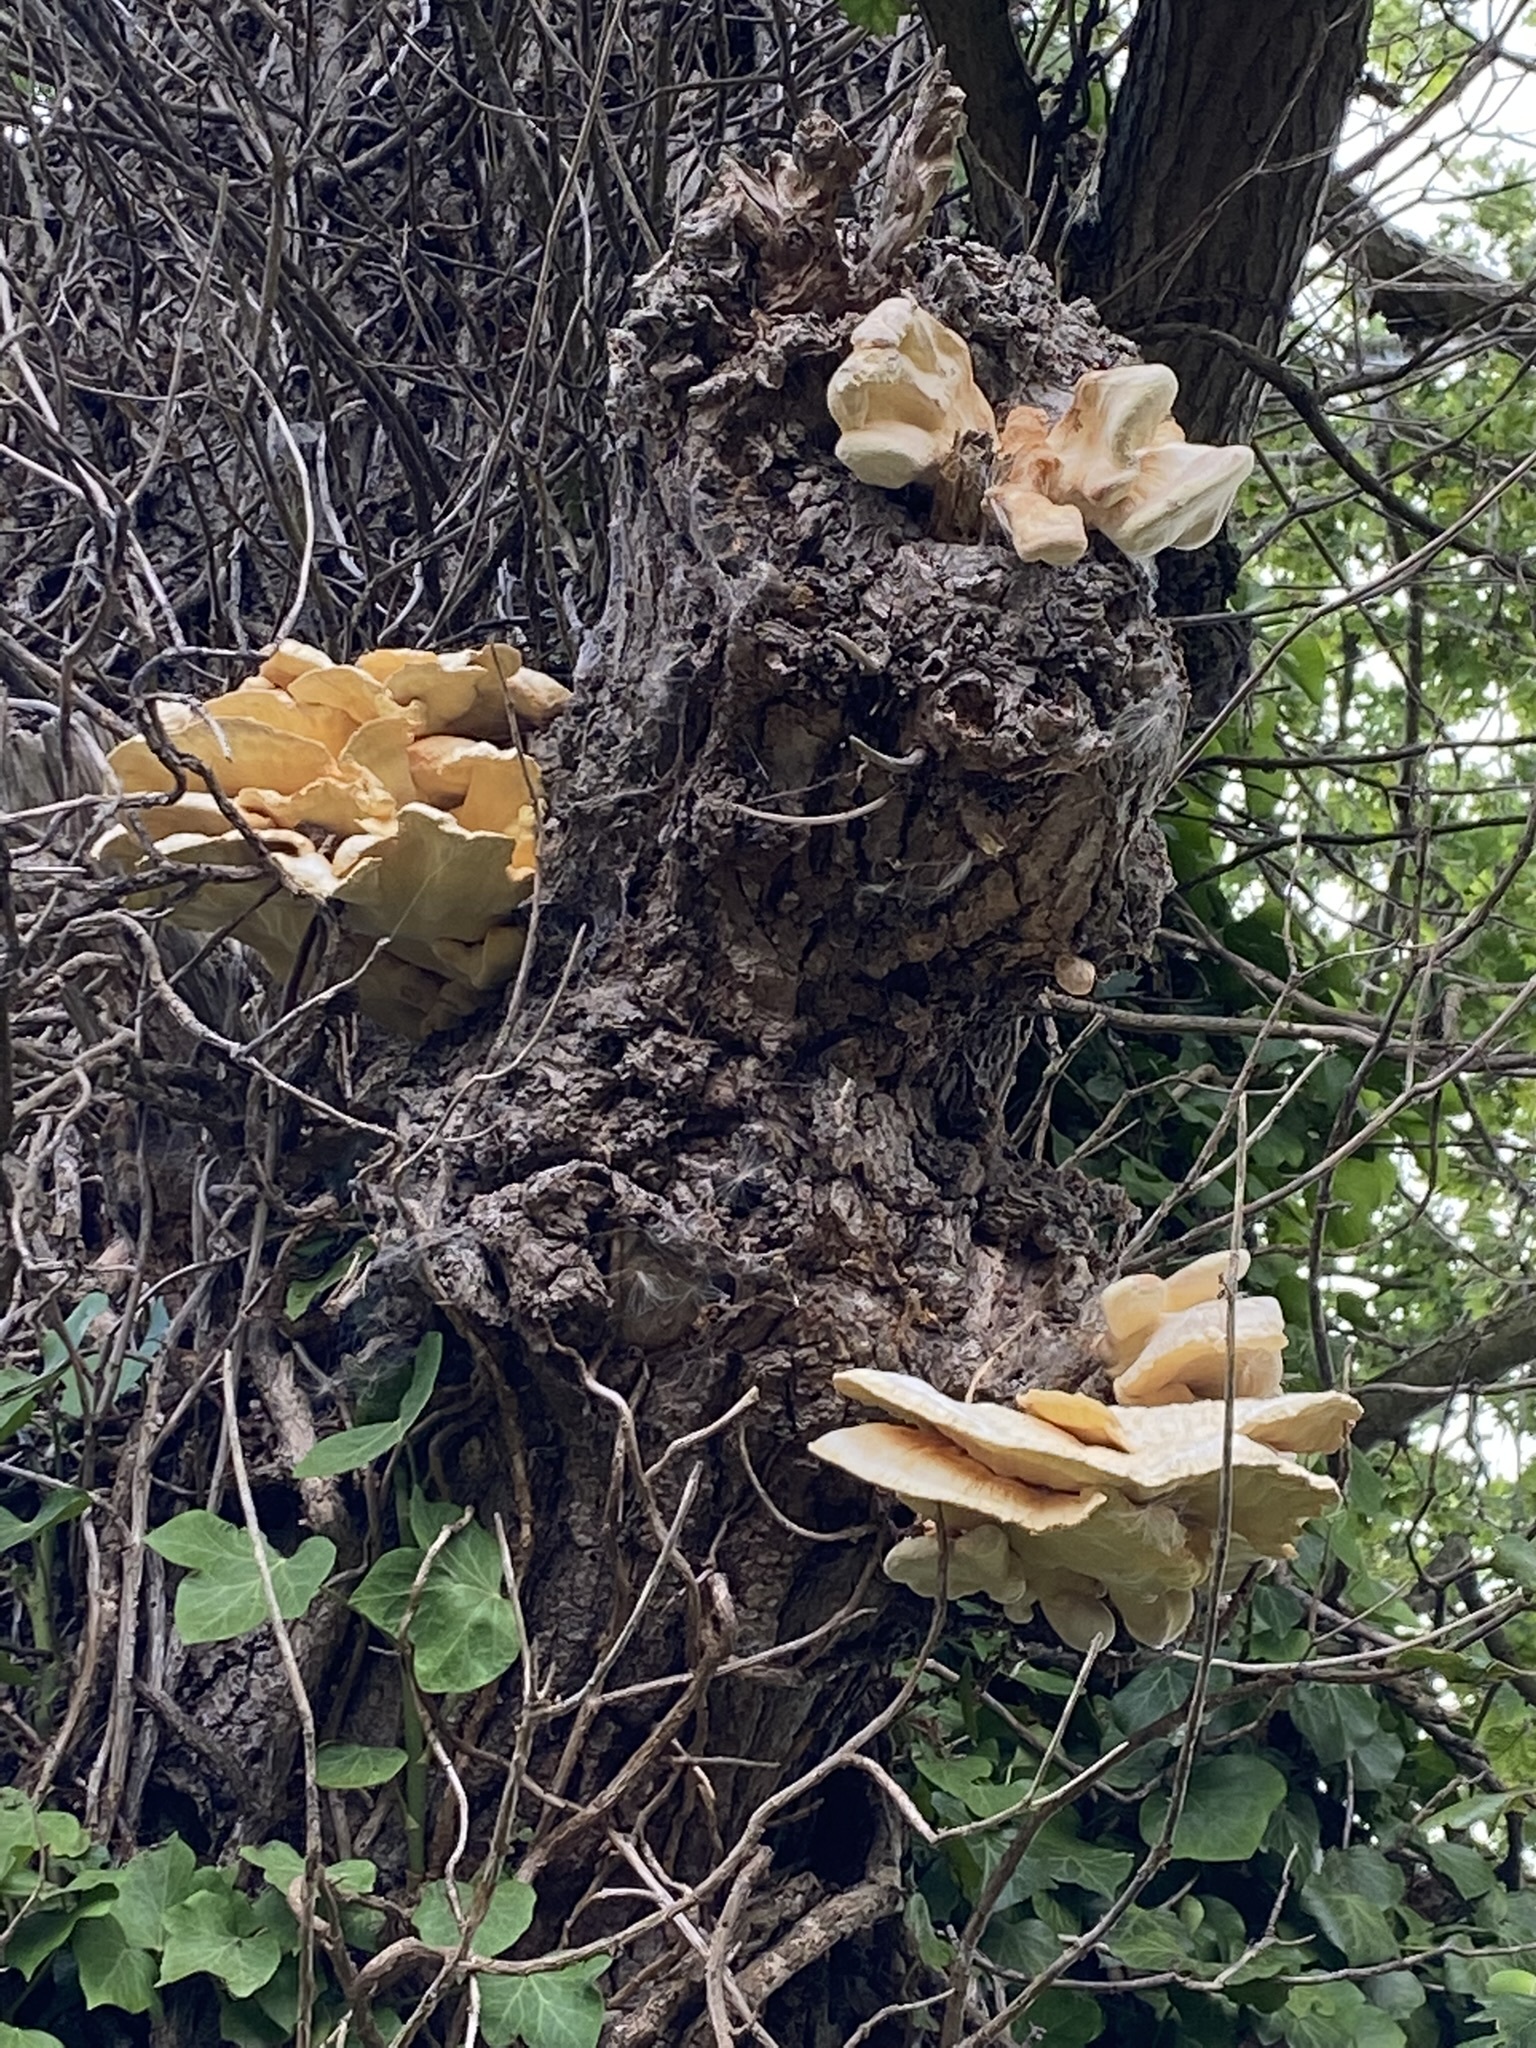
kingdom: Fungi
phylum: Basidiomycota
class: Agaricomycetes
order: Polyporales
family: Laetiporaceae
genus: Laetiporus
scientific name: Laetiporus sulphureus
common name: Chicken of the woods
